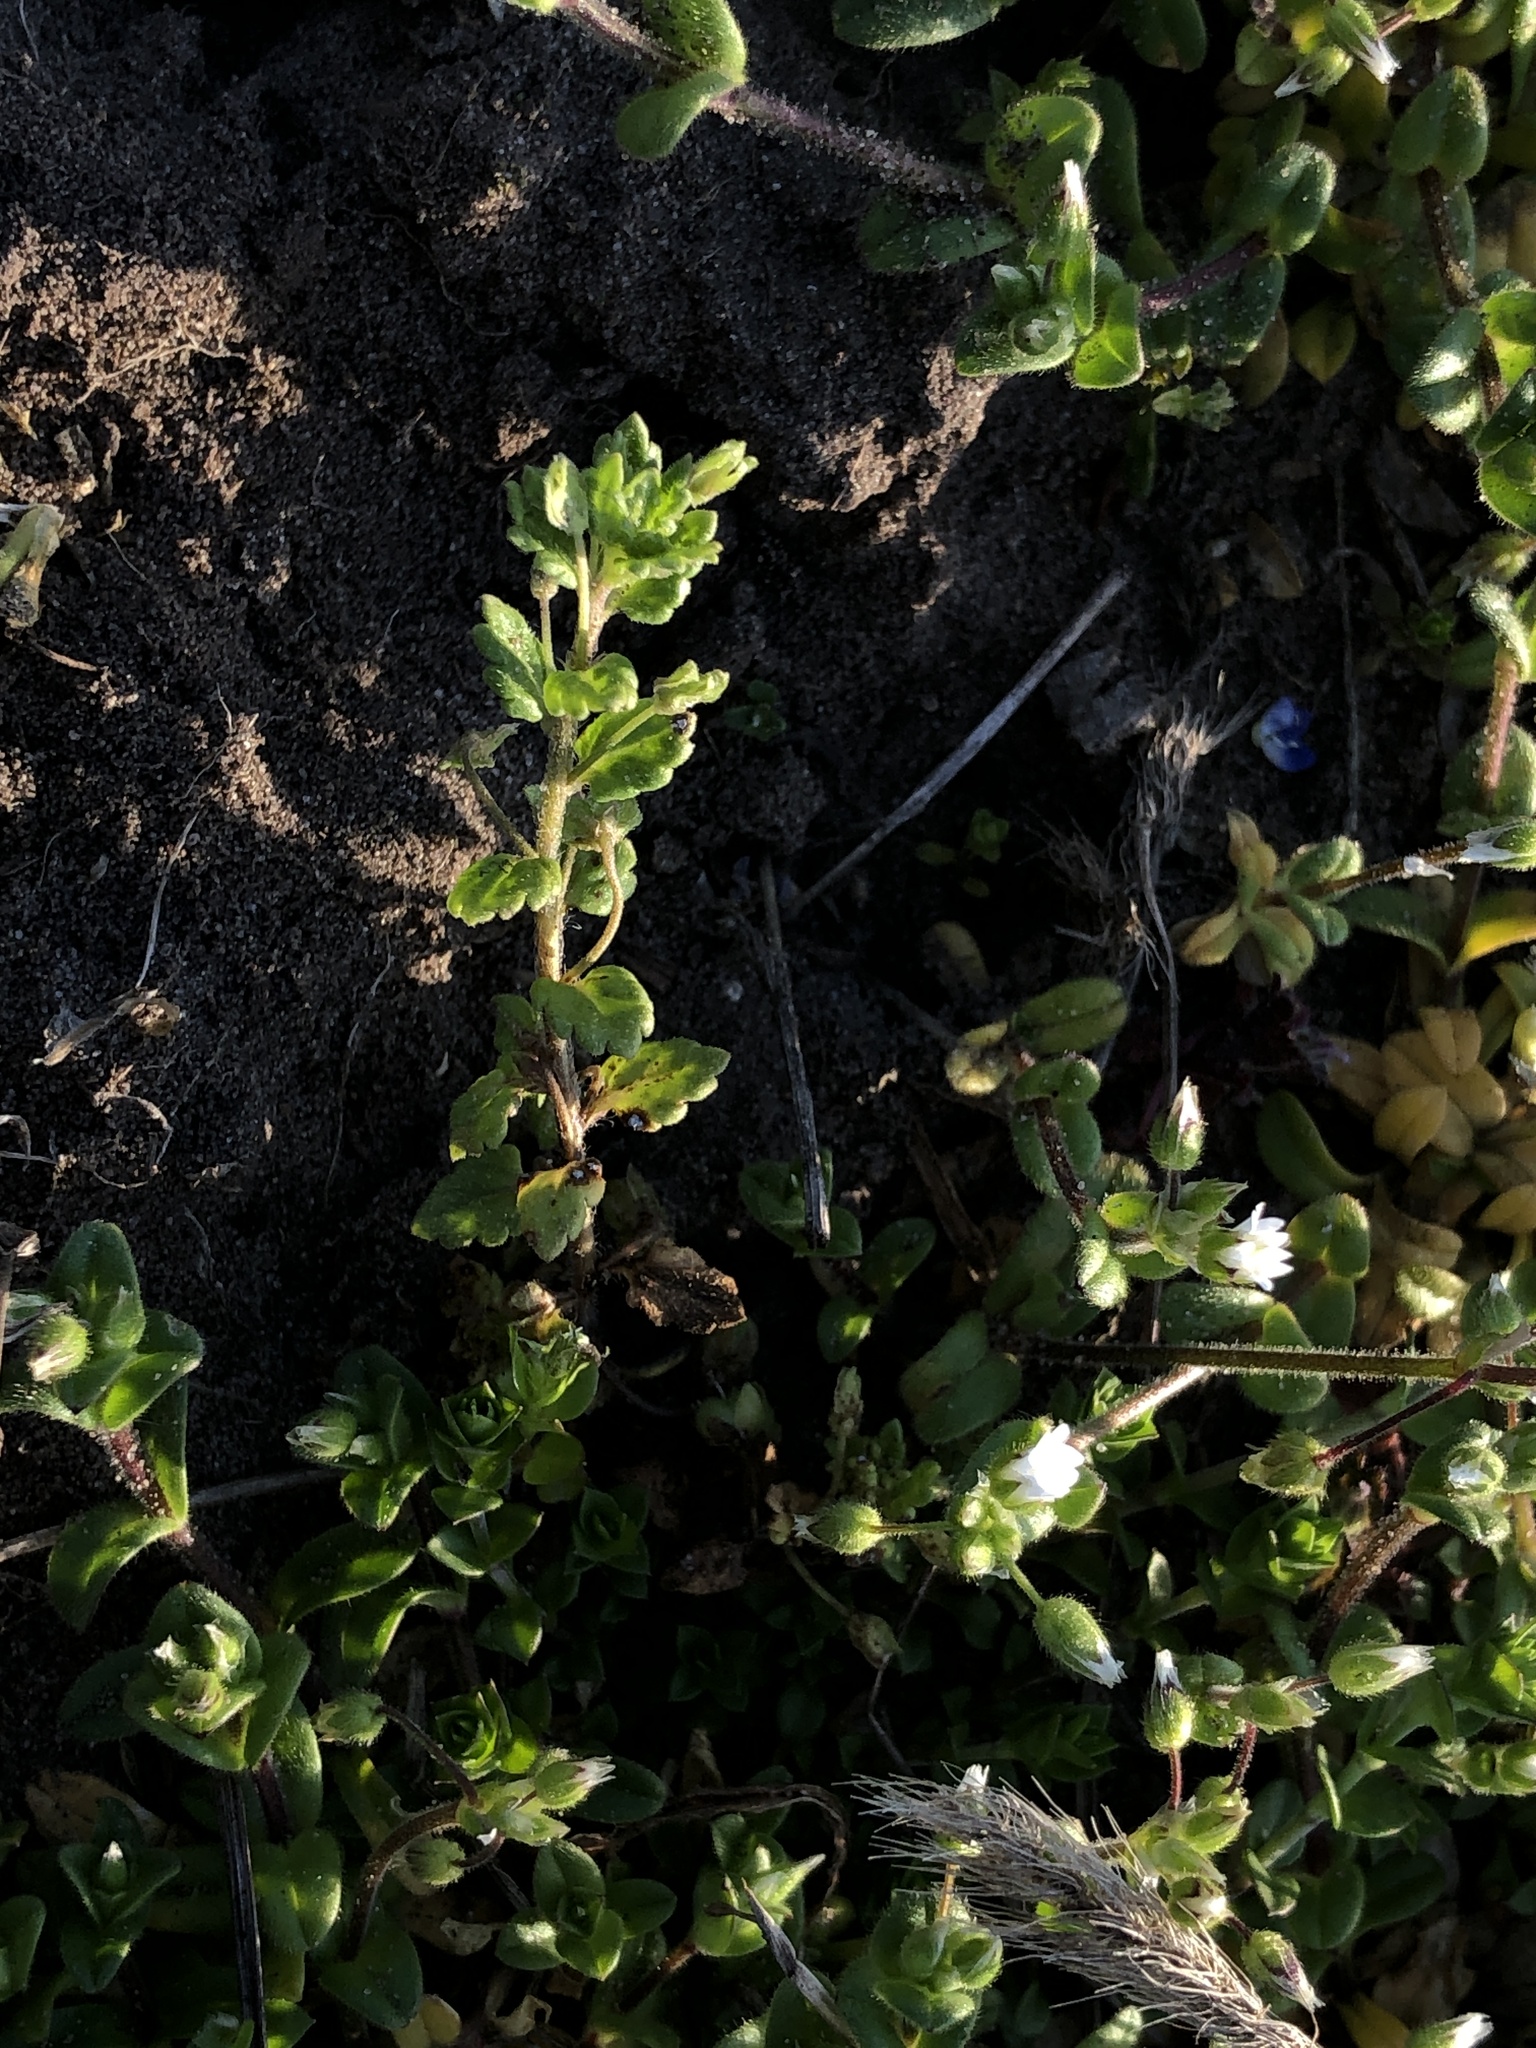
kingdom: Plantae
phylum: Tracheophyta
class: Magnoliopsida
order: Lamiales
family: Plantaginaceae
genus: Veronica
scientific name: Veronica polita
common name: Grey field-speedwell
